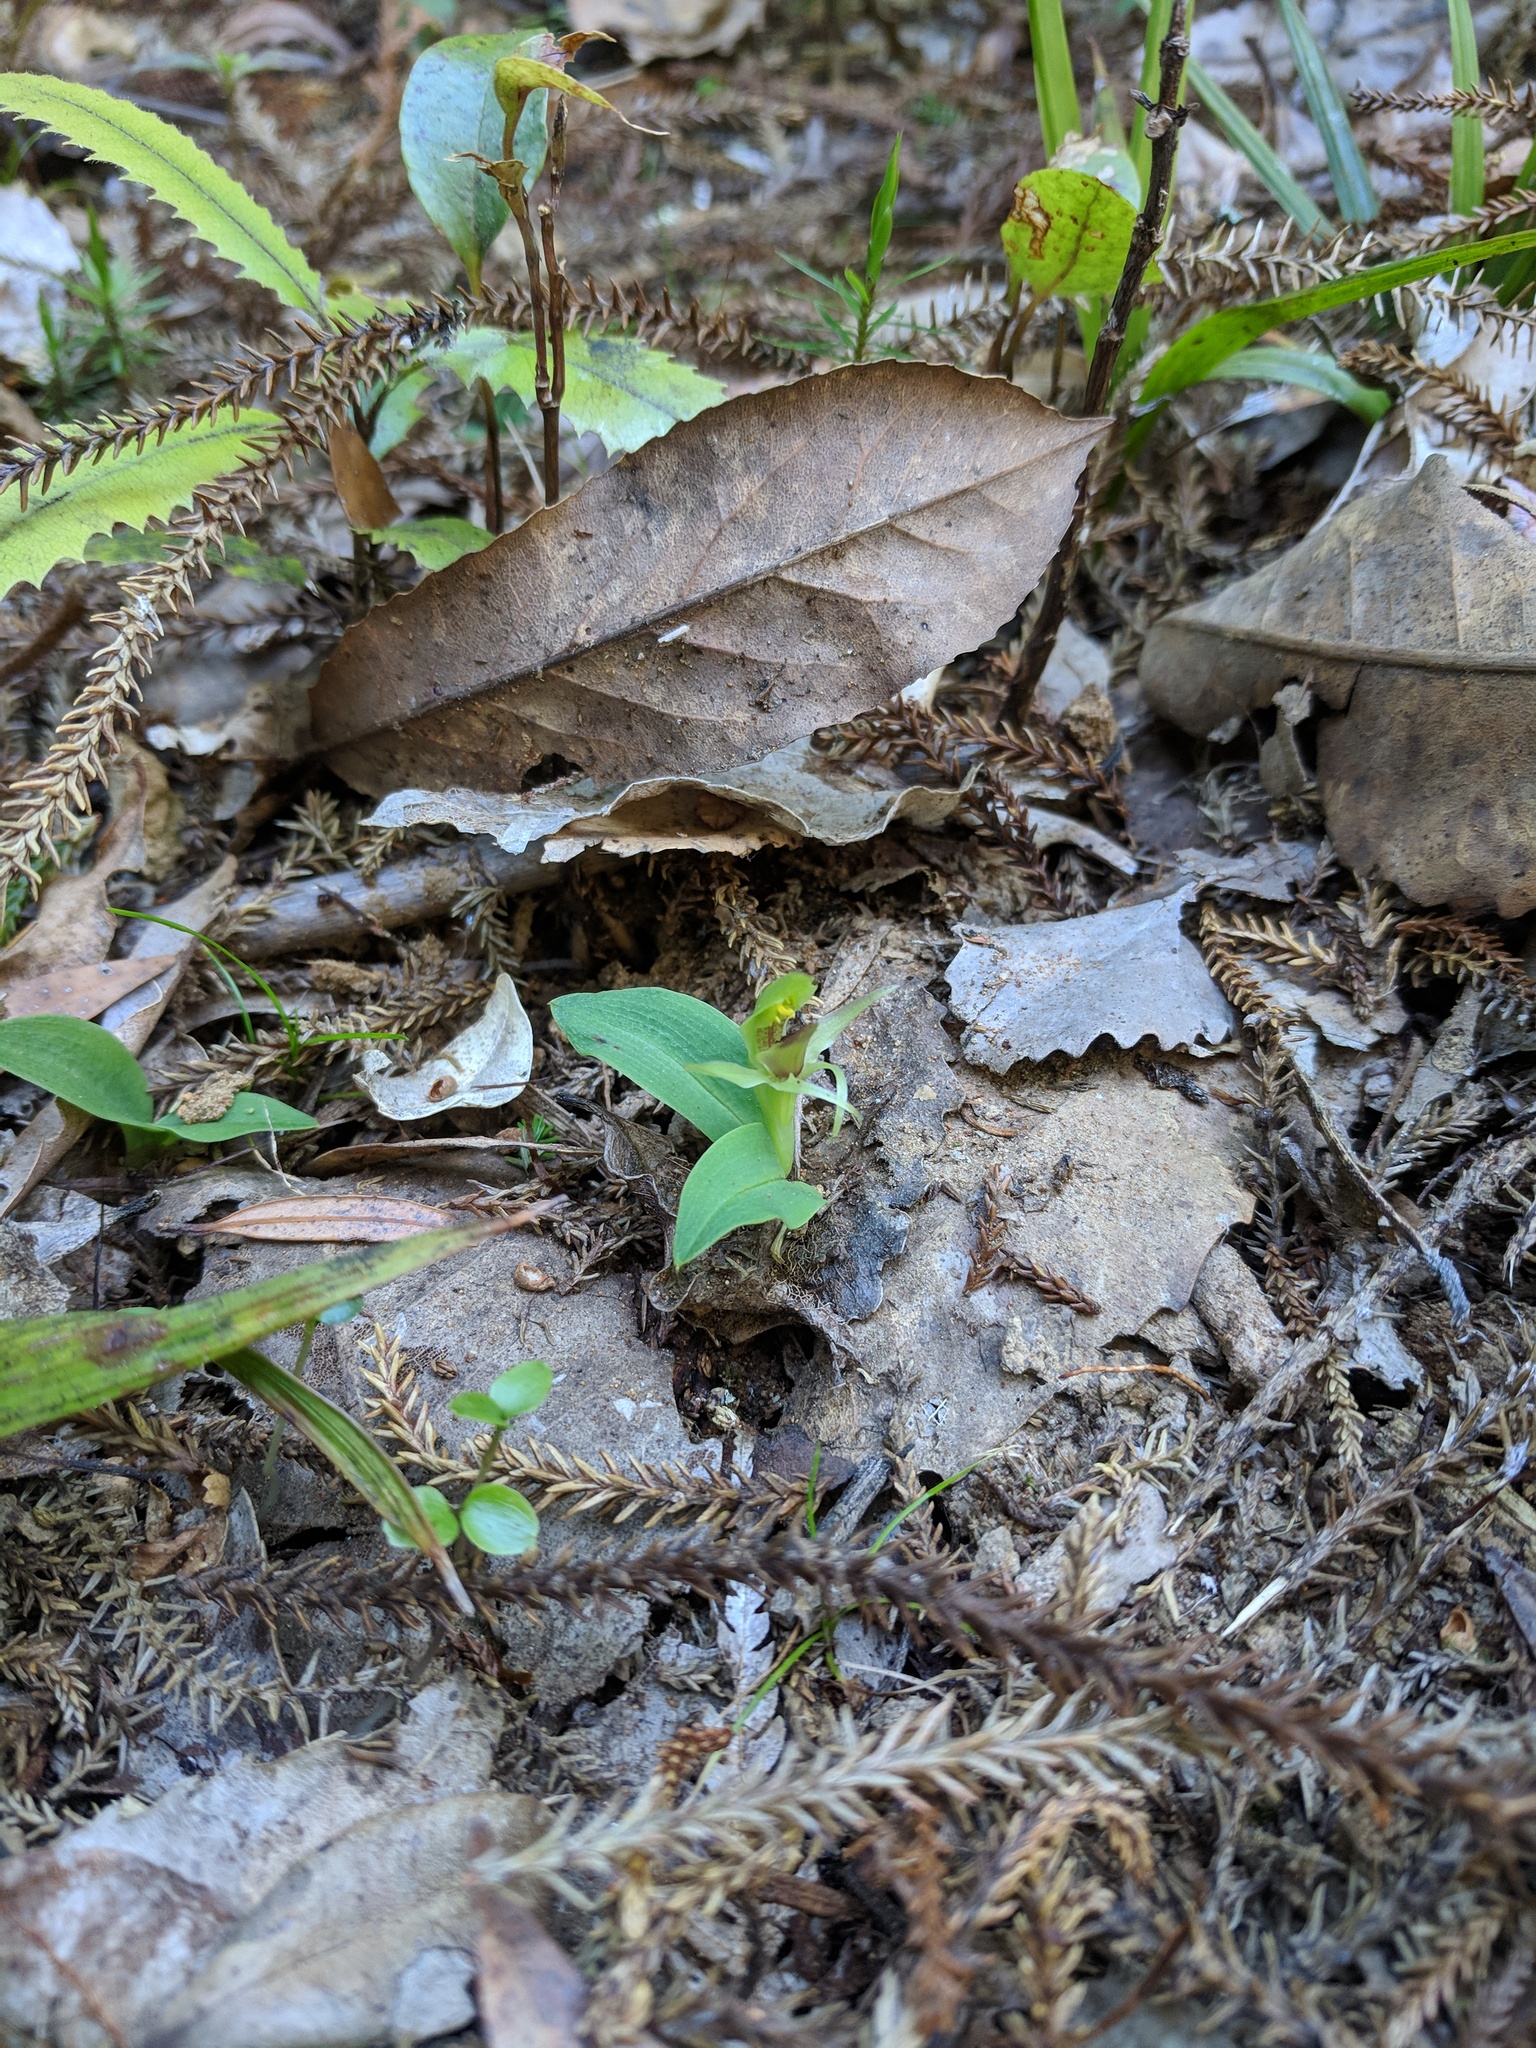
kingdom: Plantae
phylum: Tracheophyta
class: Liliopsida
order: Asparagales
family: Orchidaceae
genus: Chiloglottis
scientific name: Chiloglottis cornuta
